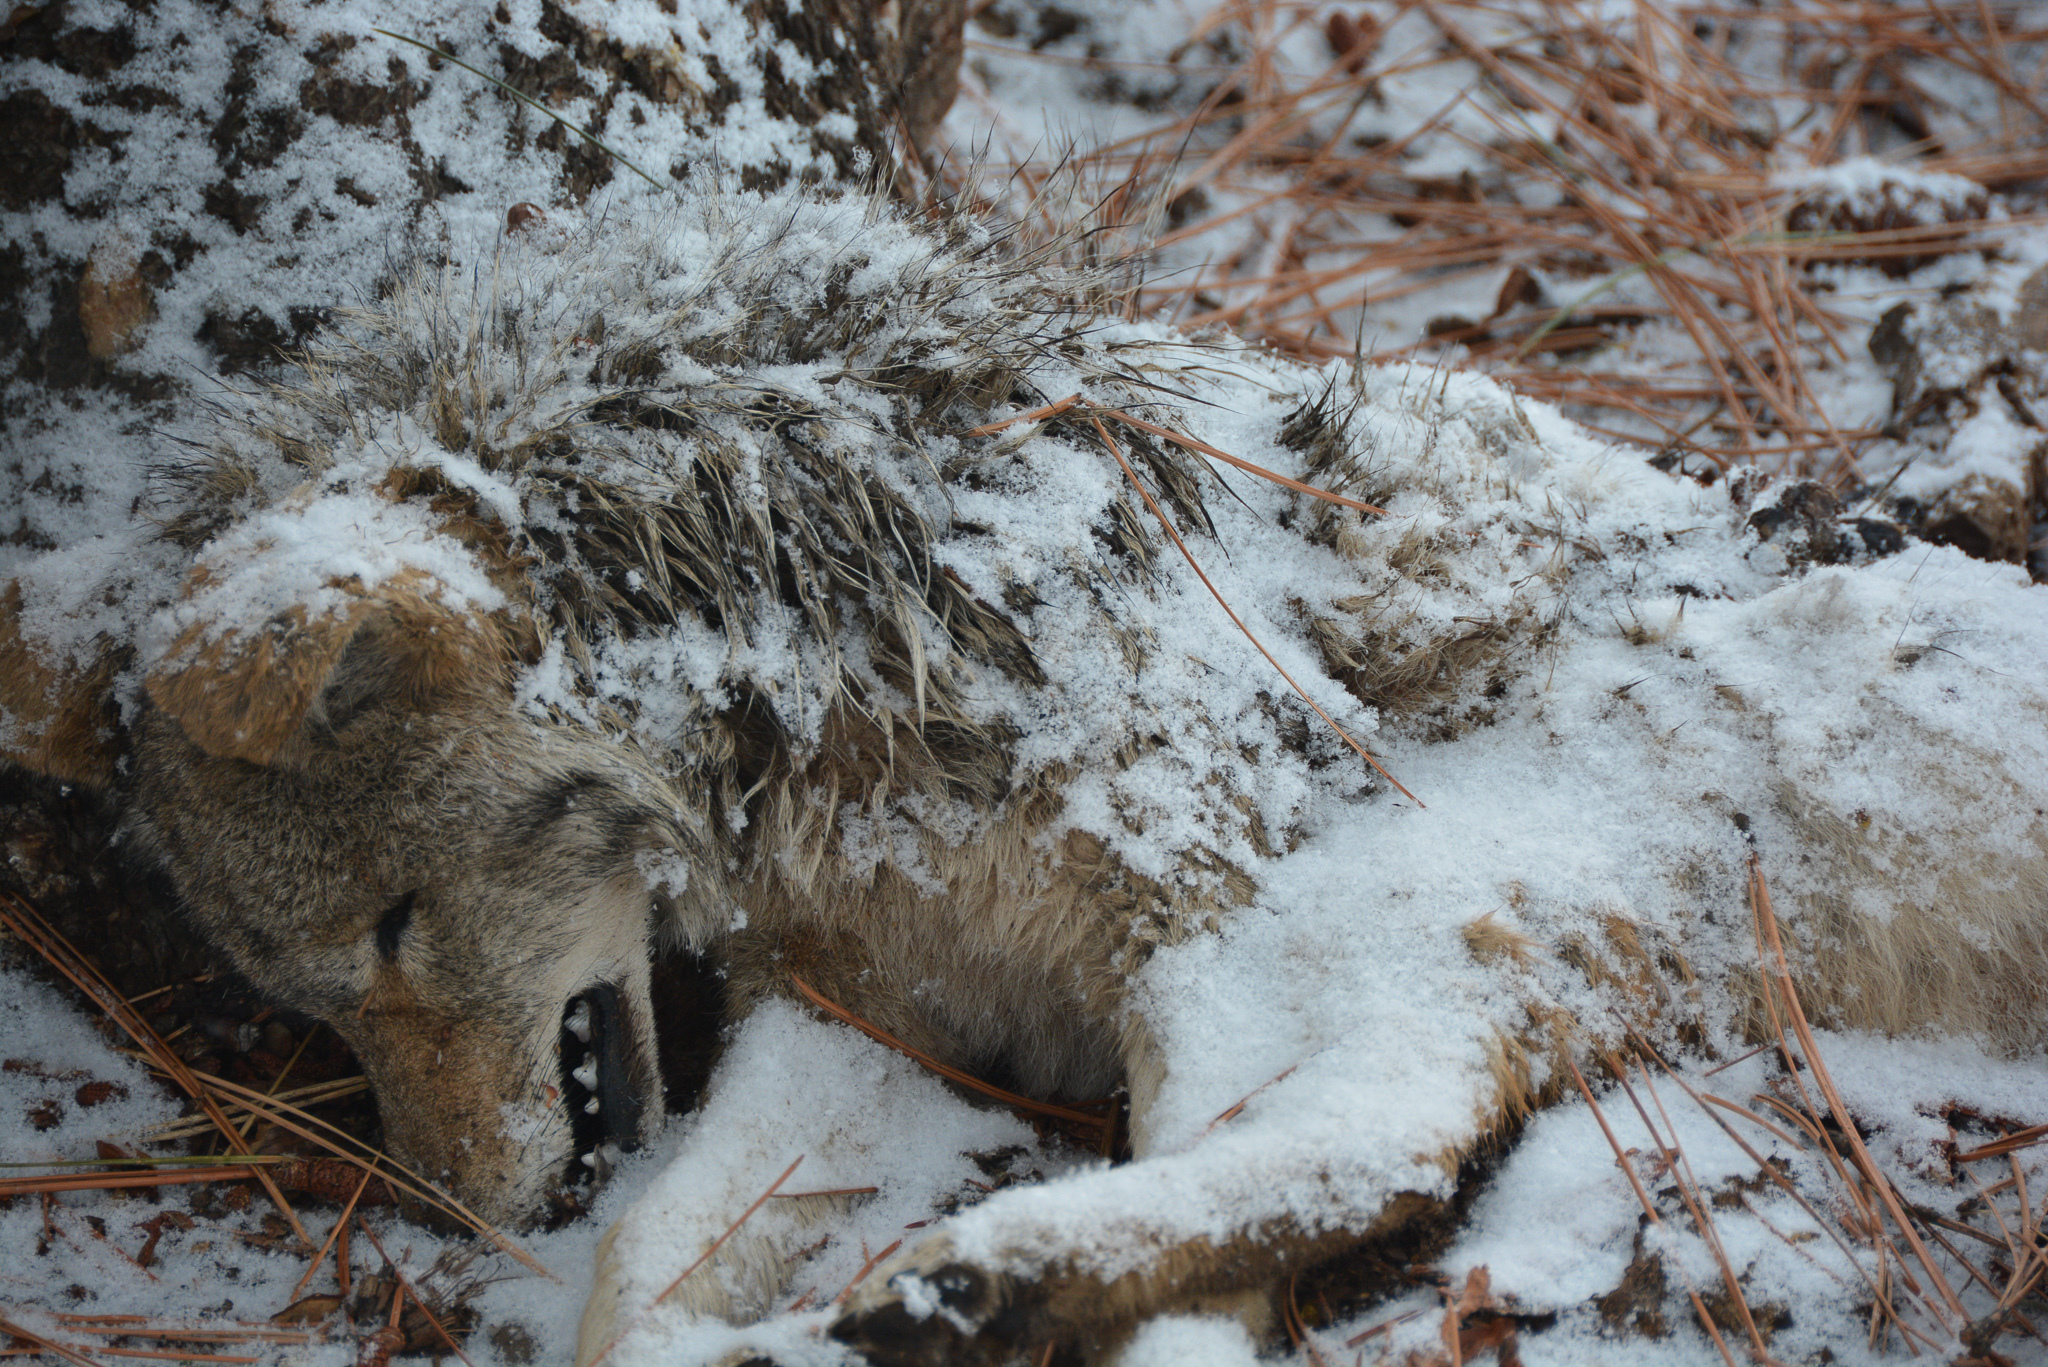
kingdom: Animalia
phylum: Chordata
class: Mammalia
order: Carnivora
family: Canidae
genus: Canis
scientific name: Canis latrans
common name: Coyote
